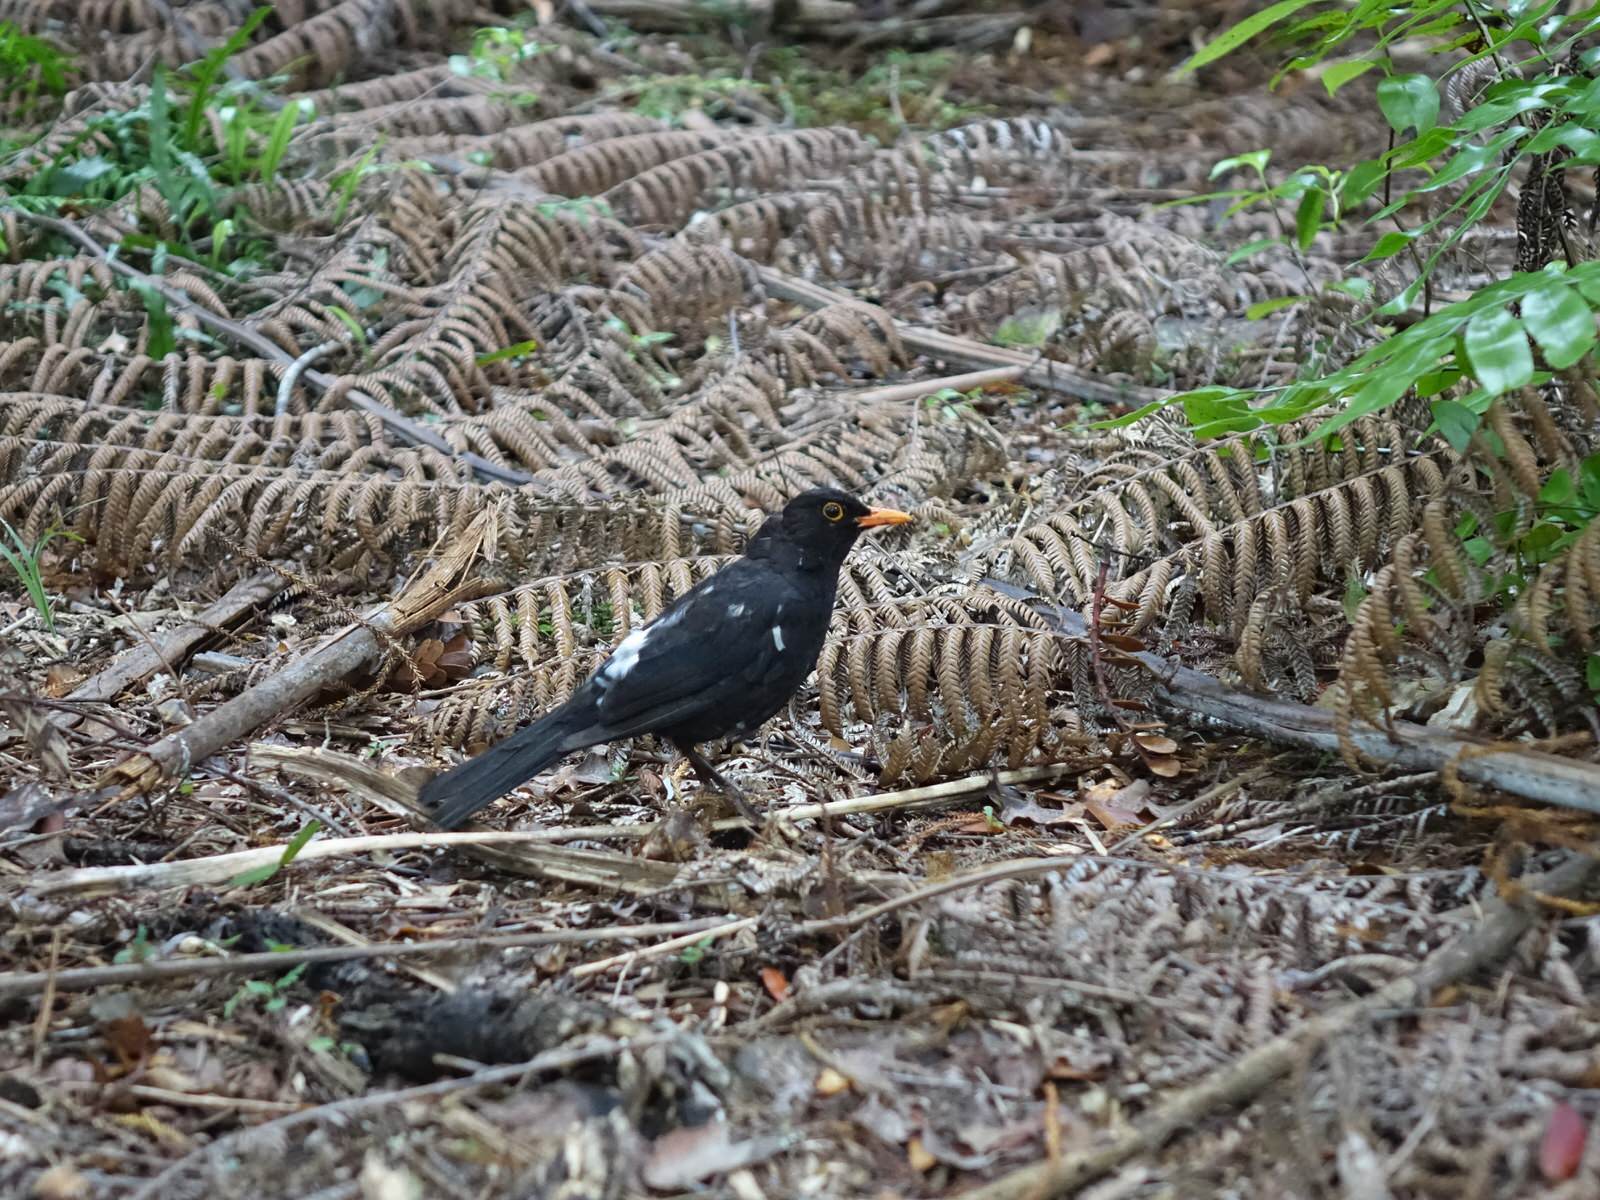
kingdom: Animalia
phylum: Chordata
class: Aves
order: Passeriformes
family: Turdidae
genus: Turdus
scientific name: Turdus merula
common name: Common blackbird
